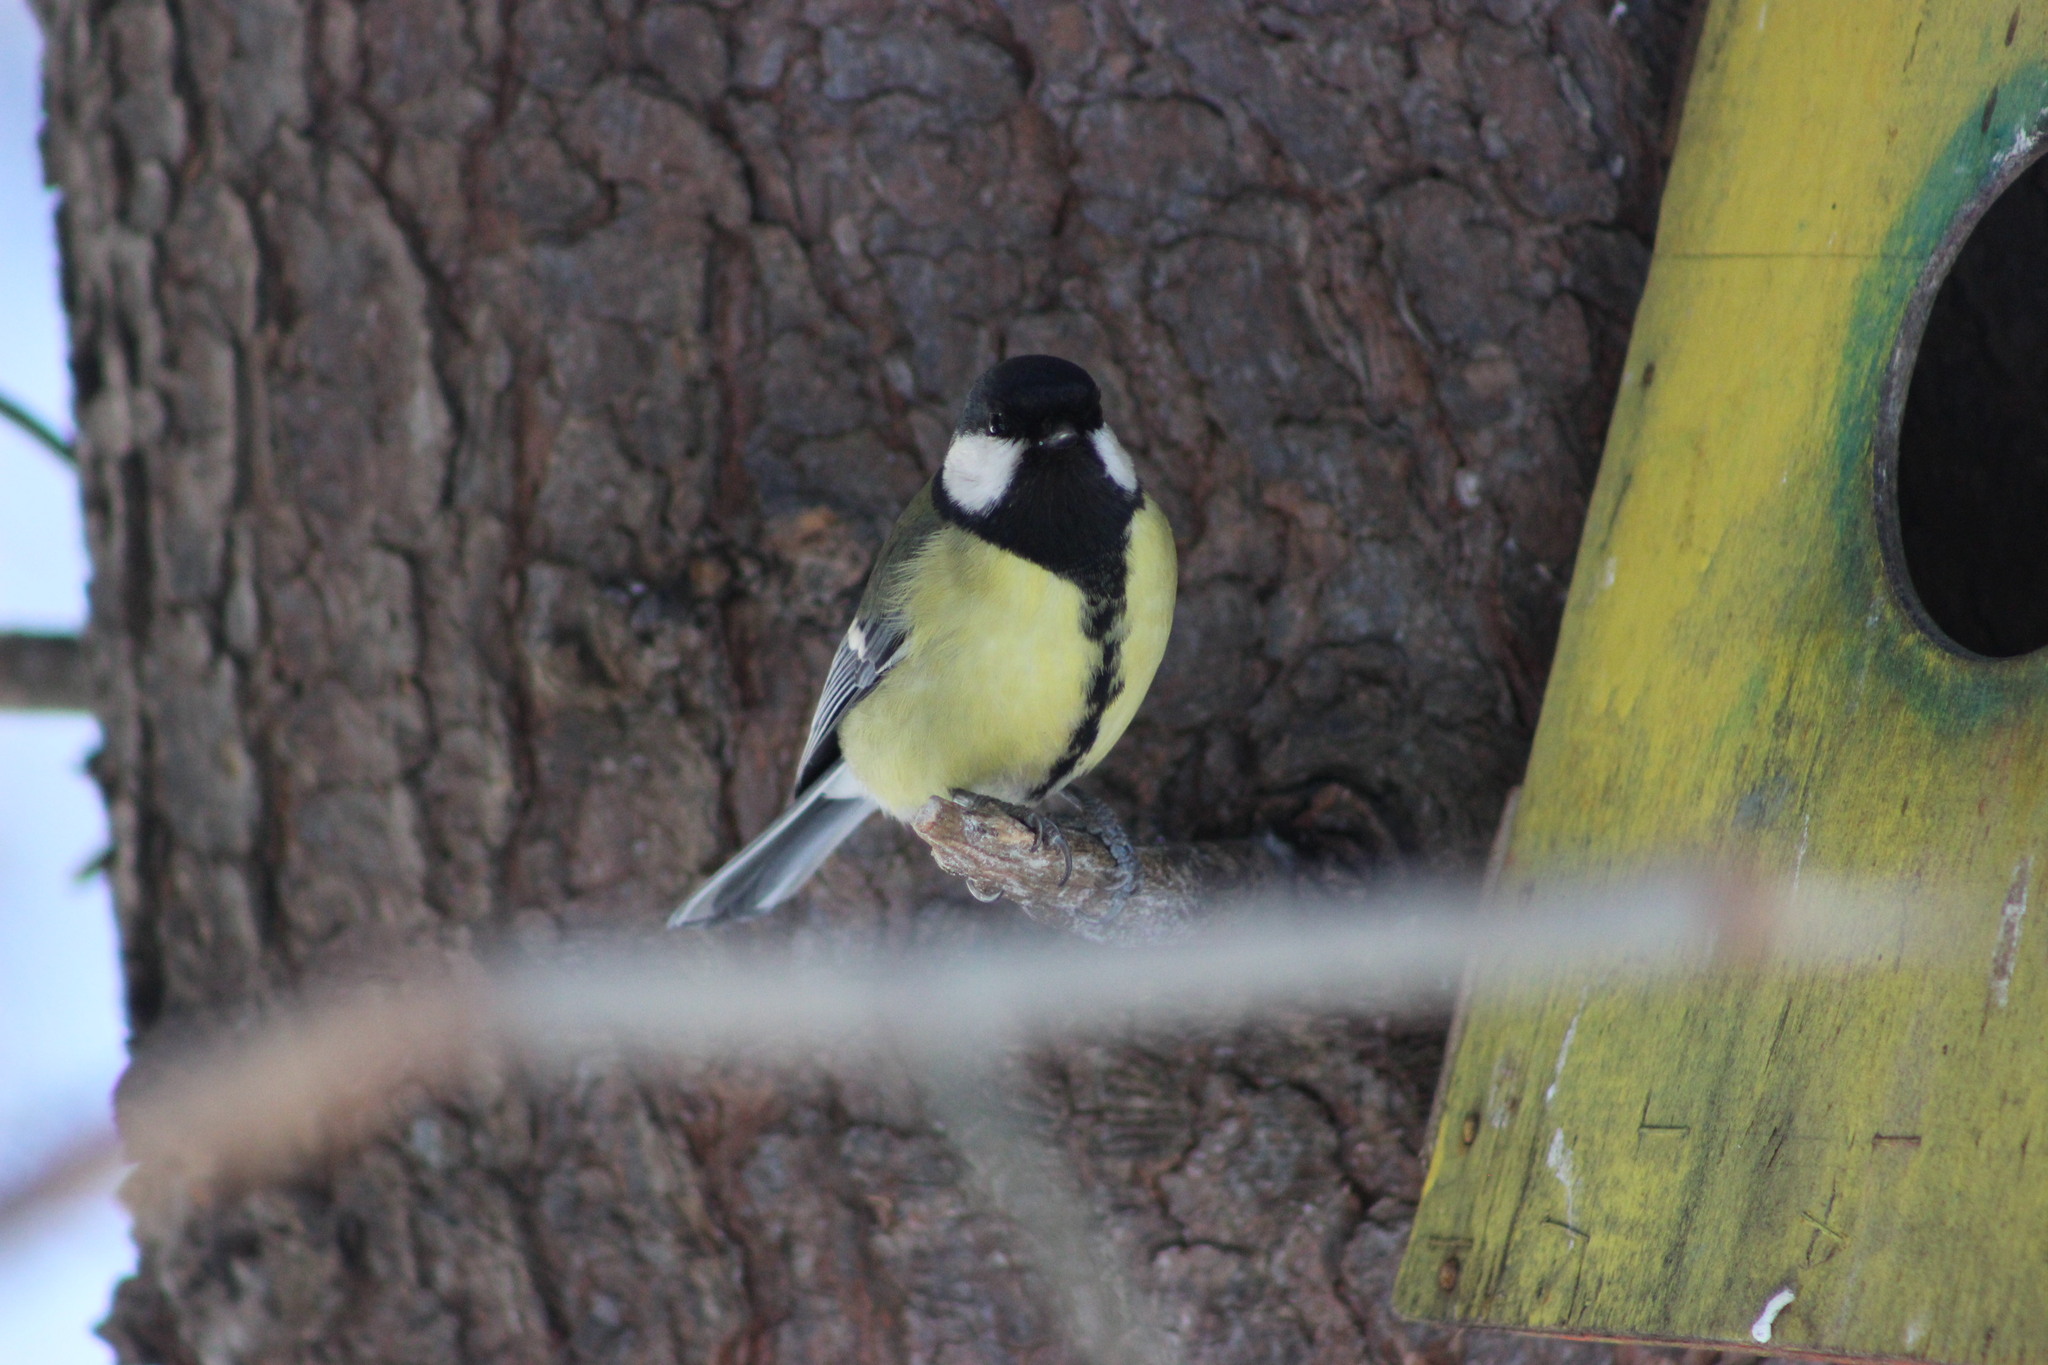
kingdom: Animalia
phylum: Chordata
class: Aves
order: Passeriformes
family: Paridae
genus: Parus
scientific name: Parus major
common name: Great tit
